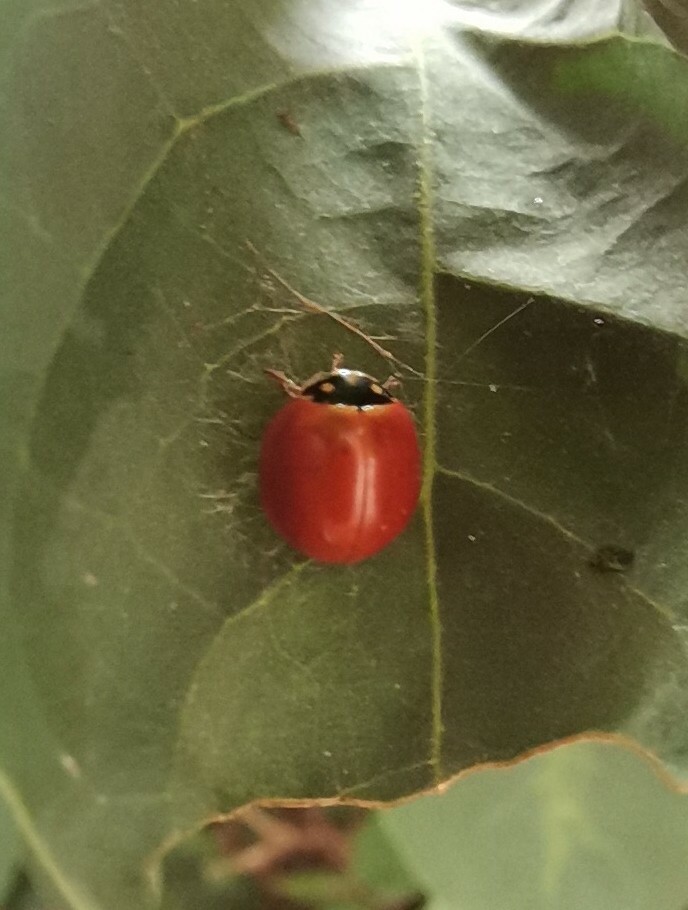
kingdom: Animalia
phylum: Arthropoda
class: Insecta
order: Coleoptera
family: Coccinellidae
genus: Cycloneda
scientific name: Cycloneda emarginata
